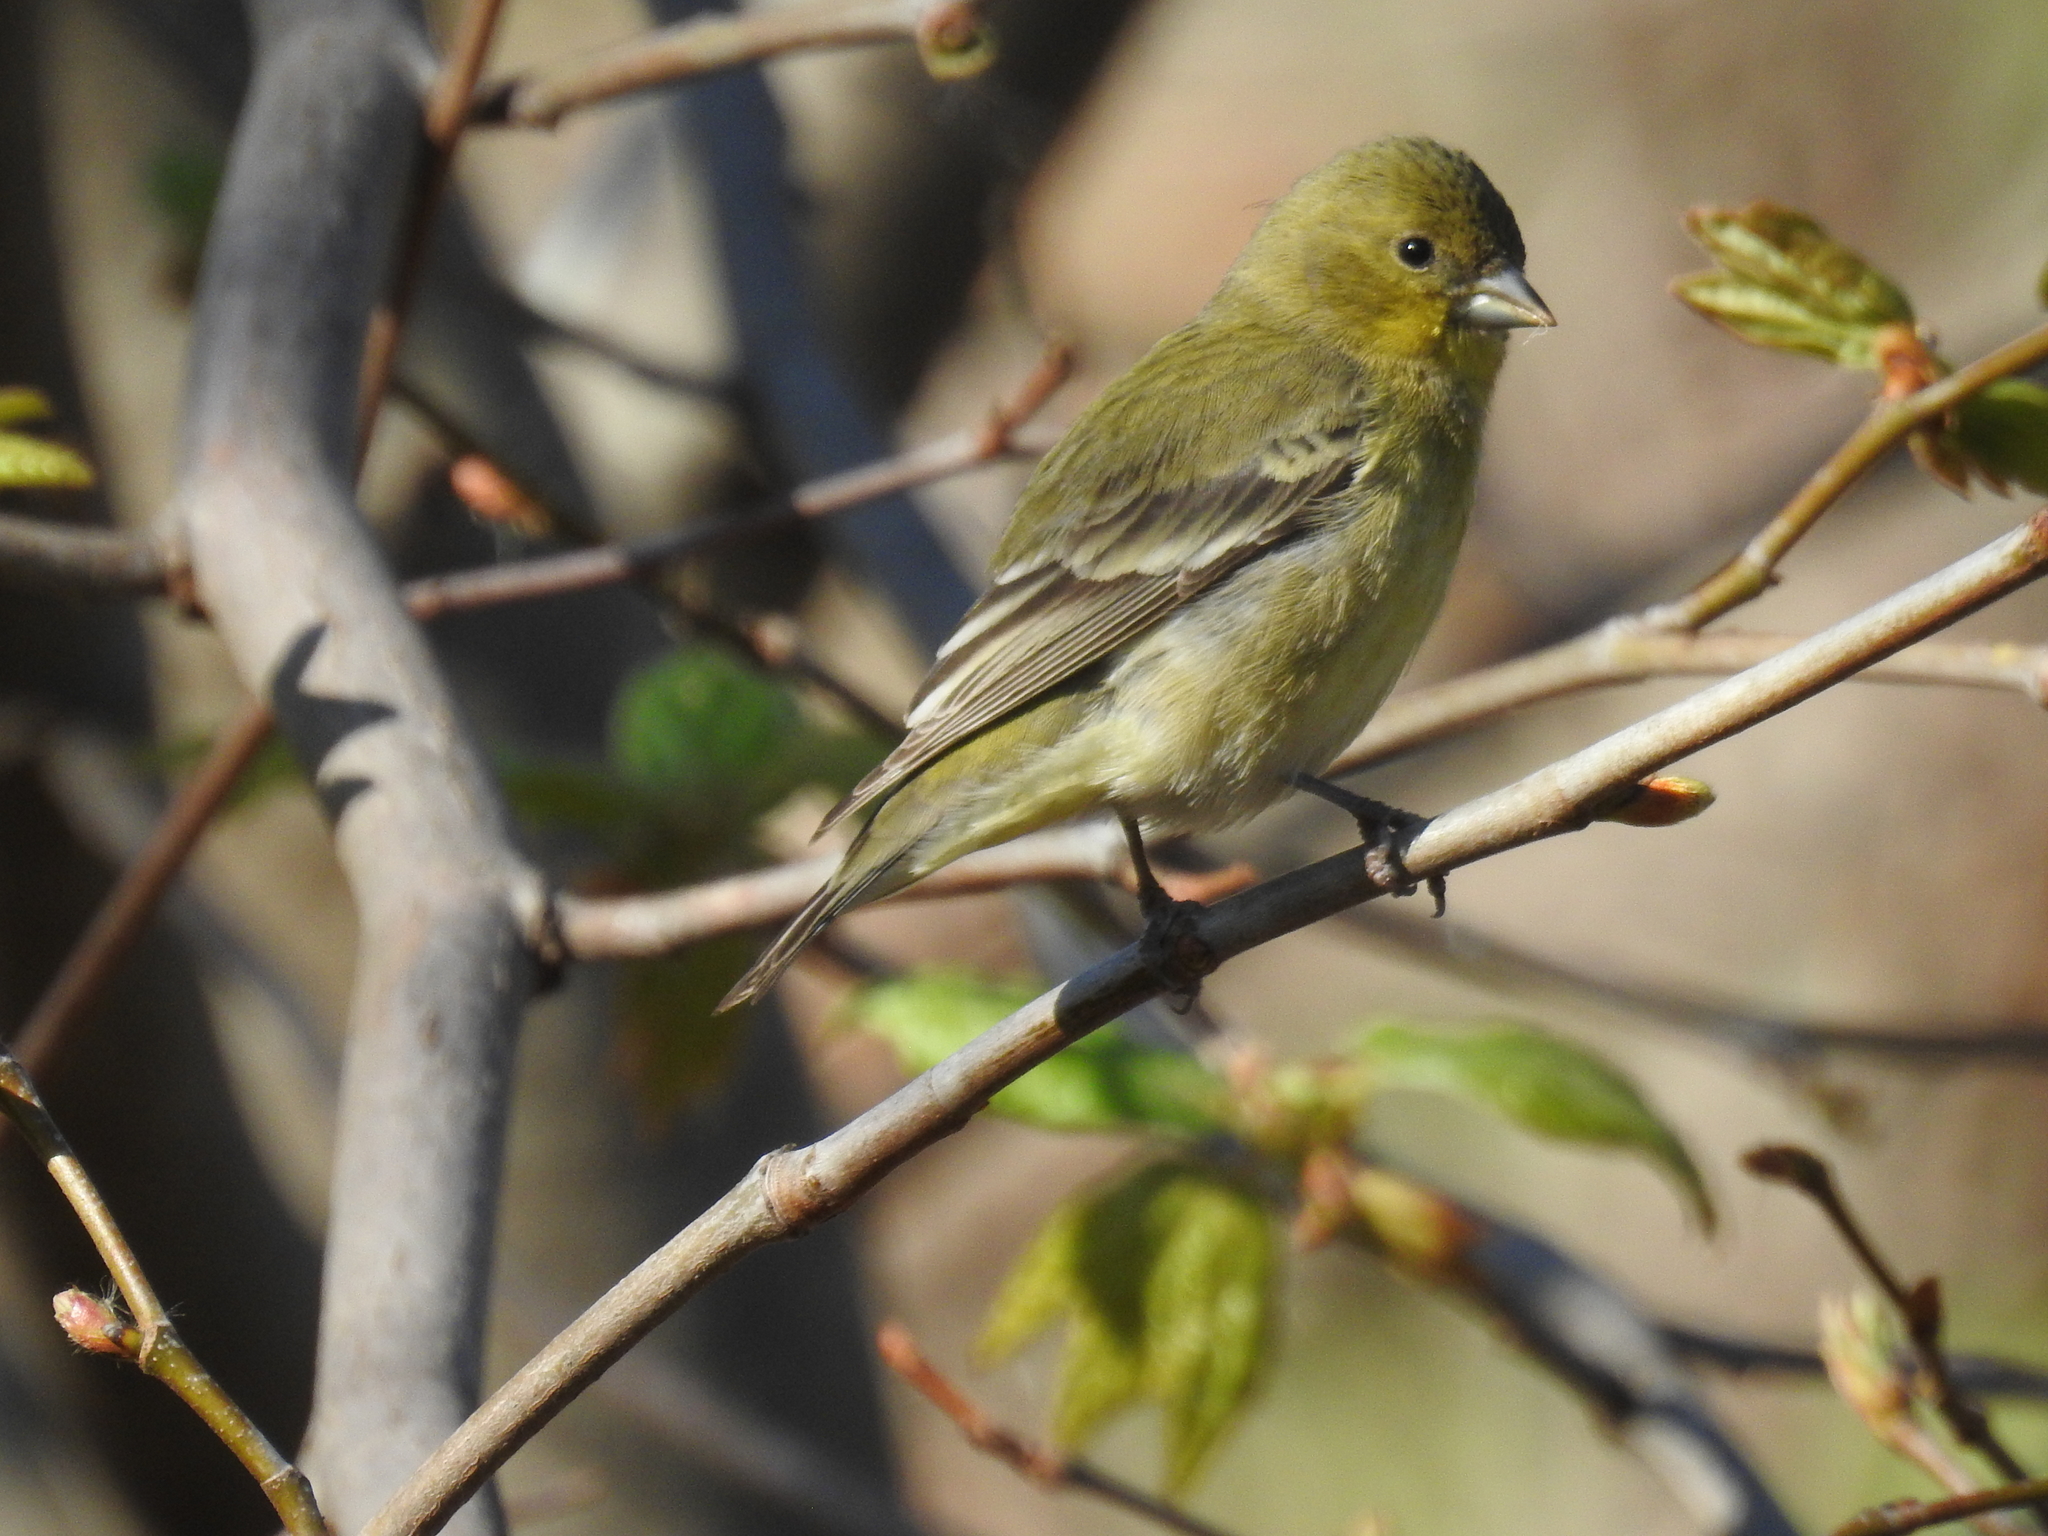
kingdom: Animalia
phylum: Chordata
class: Aves
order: Passeriformes
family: Fringillidae
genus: Spinus
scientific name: Spinus psaltria
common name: Lesser goldfinch
